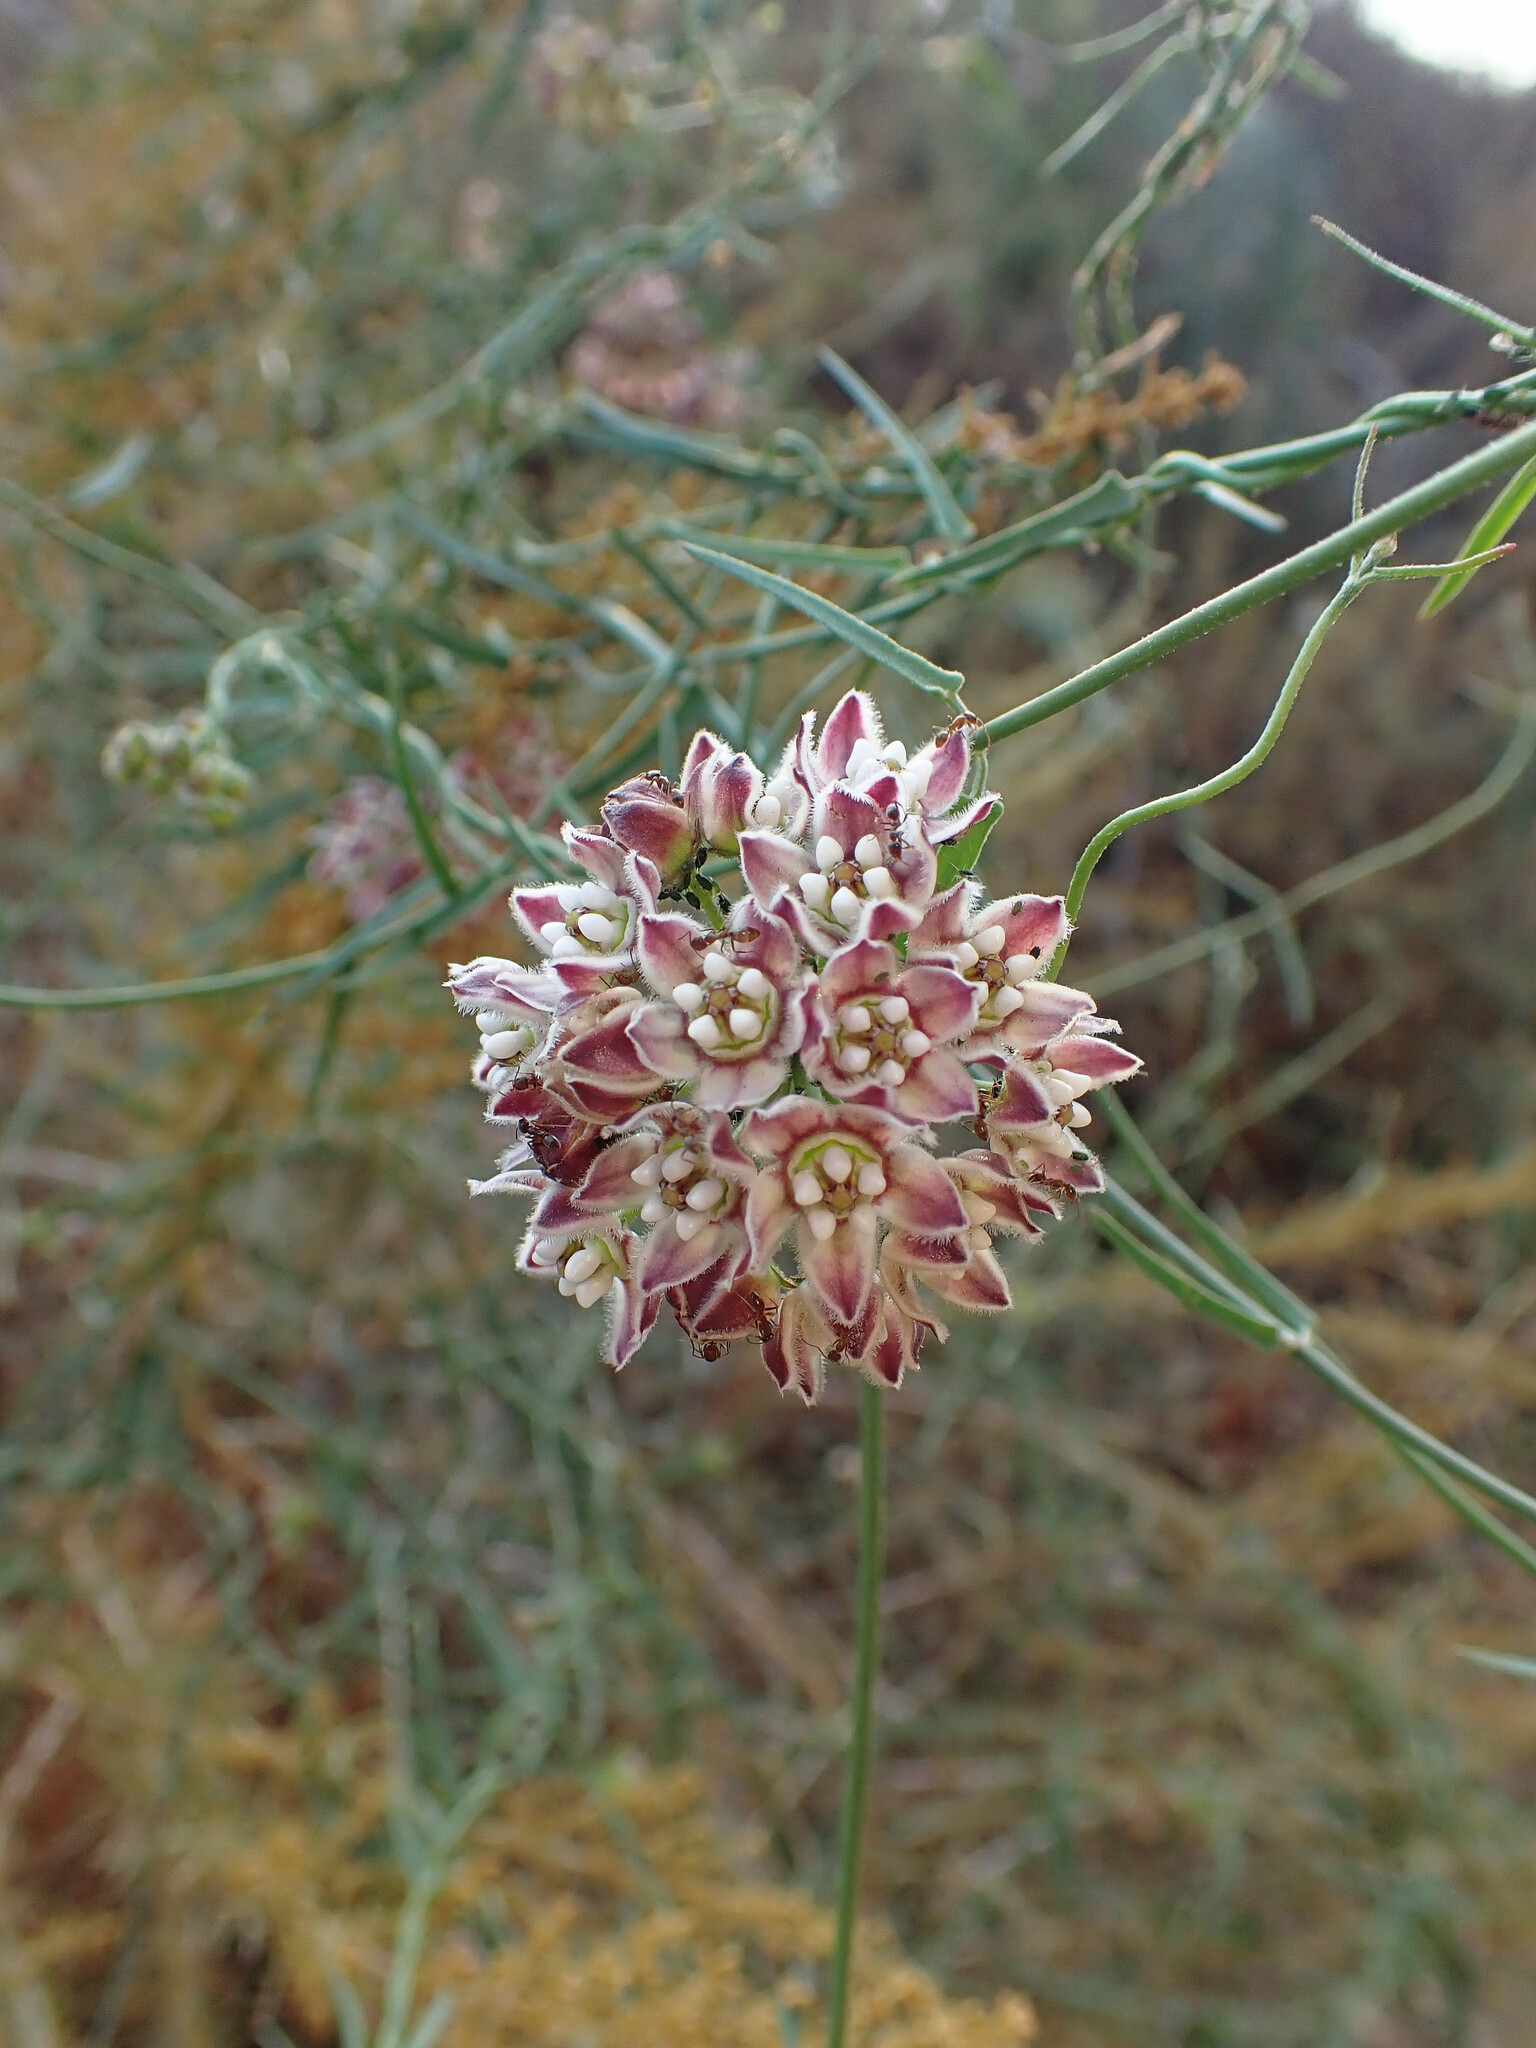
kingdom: Plantae
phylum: Tracheophyta
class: Magnoliopsida
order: Gentianales
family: Apocynaceae
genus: Funastrum
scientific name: Funastrum heterophyllum
